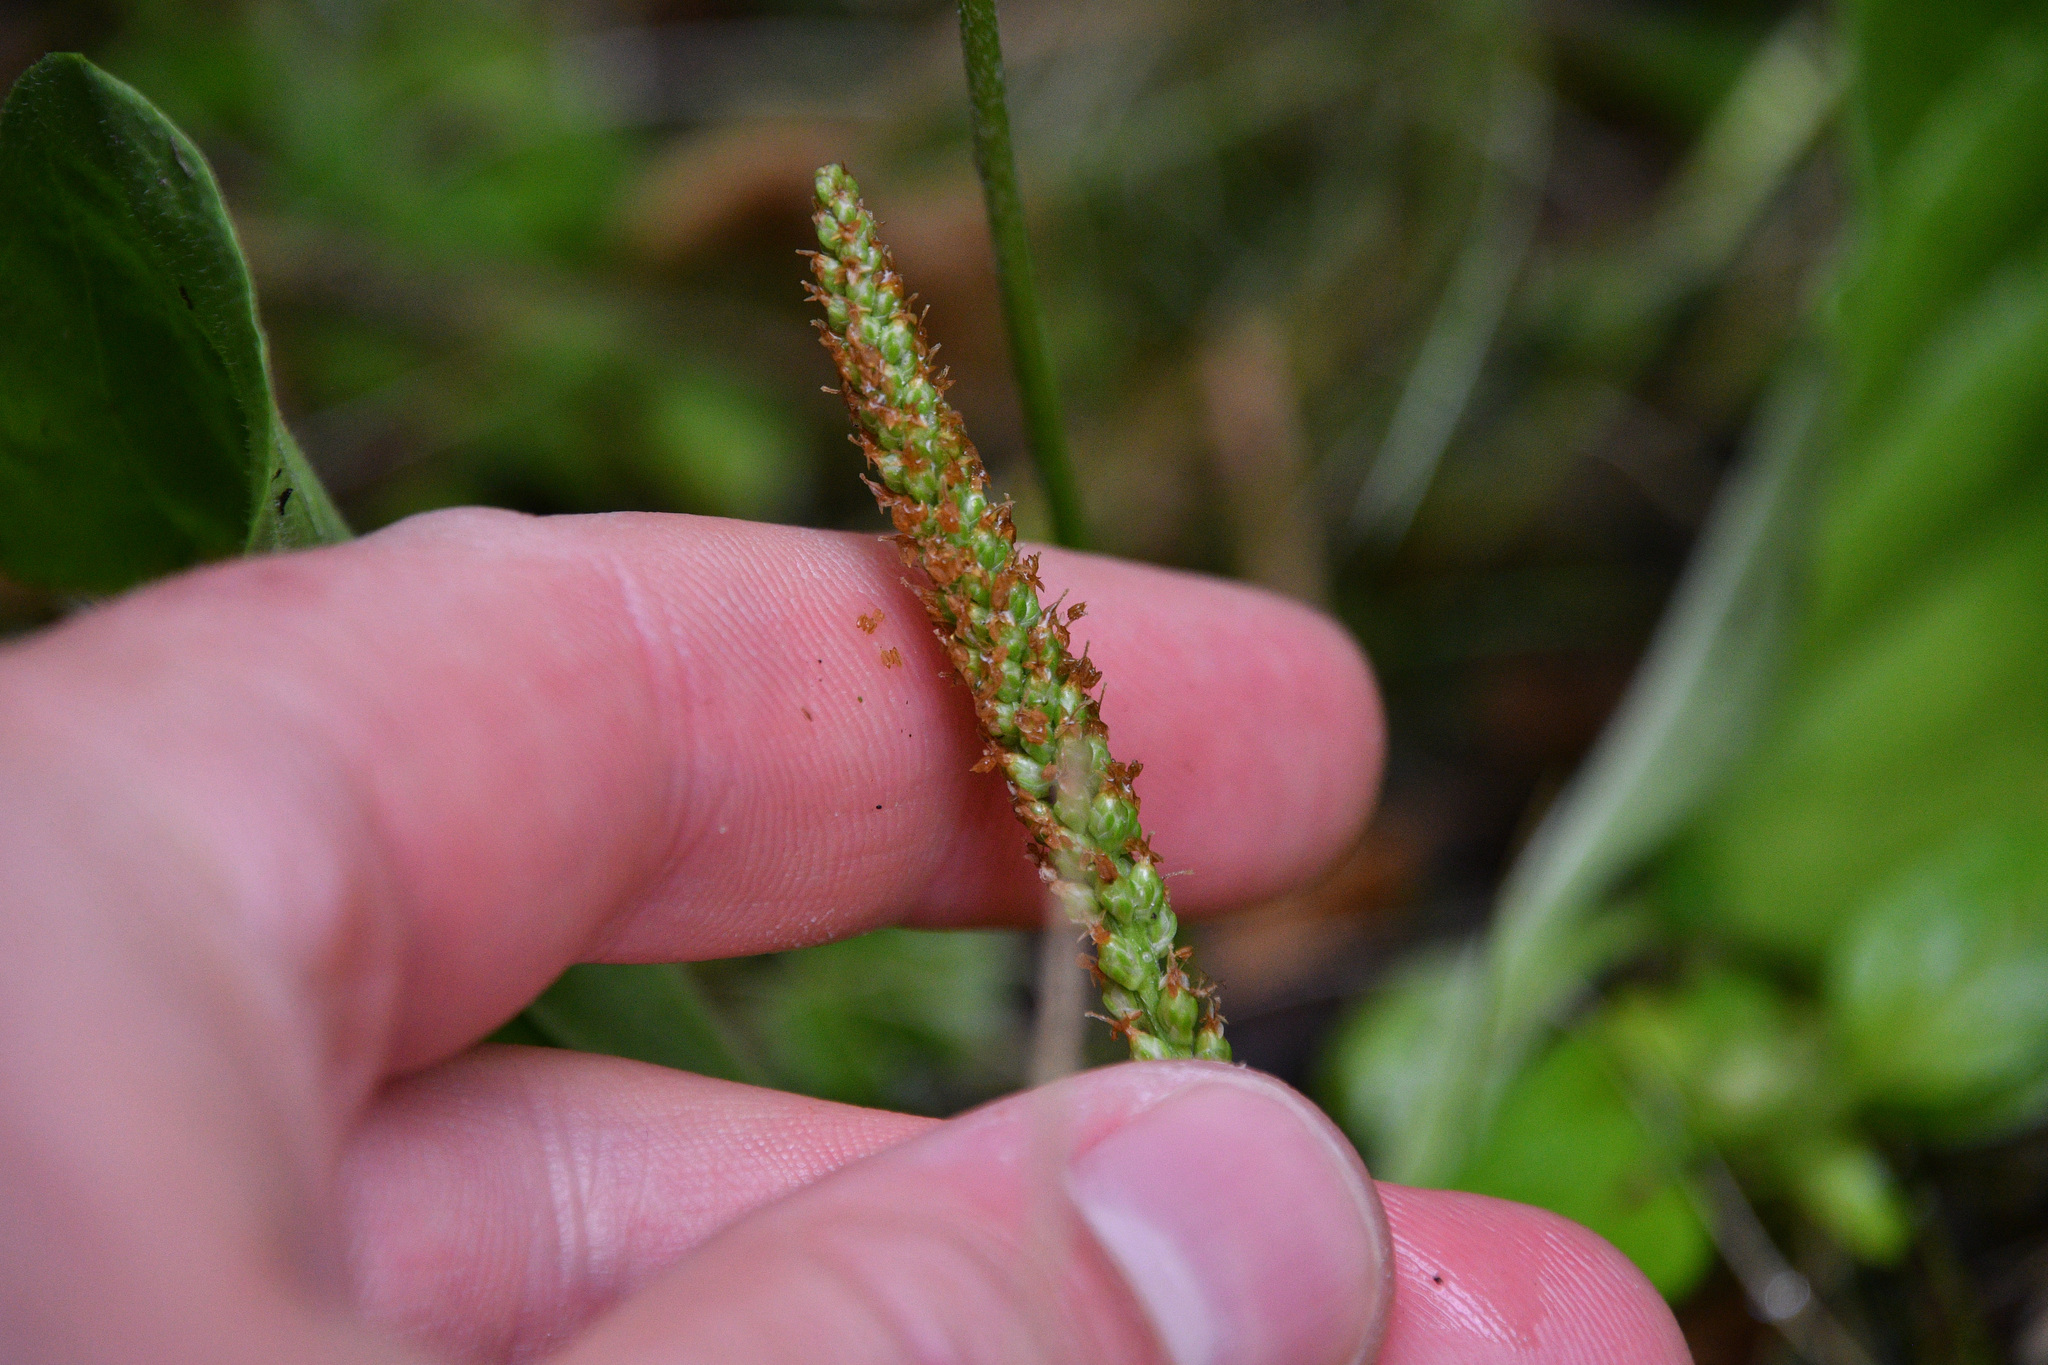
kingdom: Plantae
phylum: Tracheophyta
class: Magnoliopsida
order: Lamiales
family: Plantaginaceae
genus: Plantago
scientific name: Plantago major
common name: Common plantain
